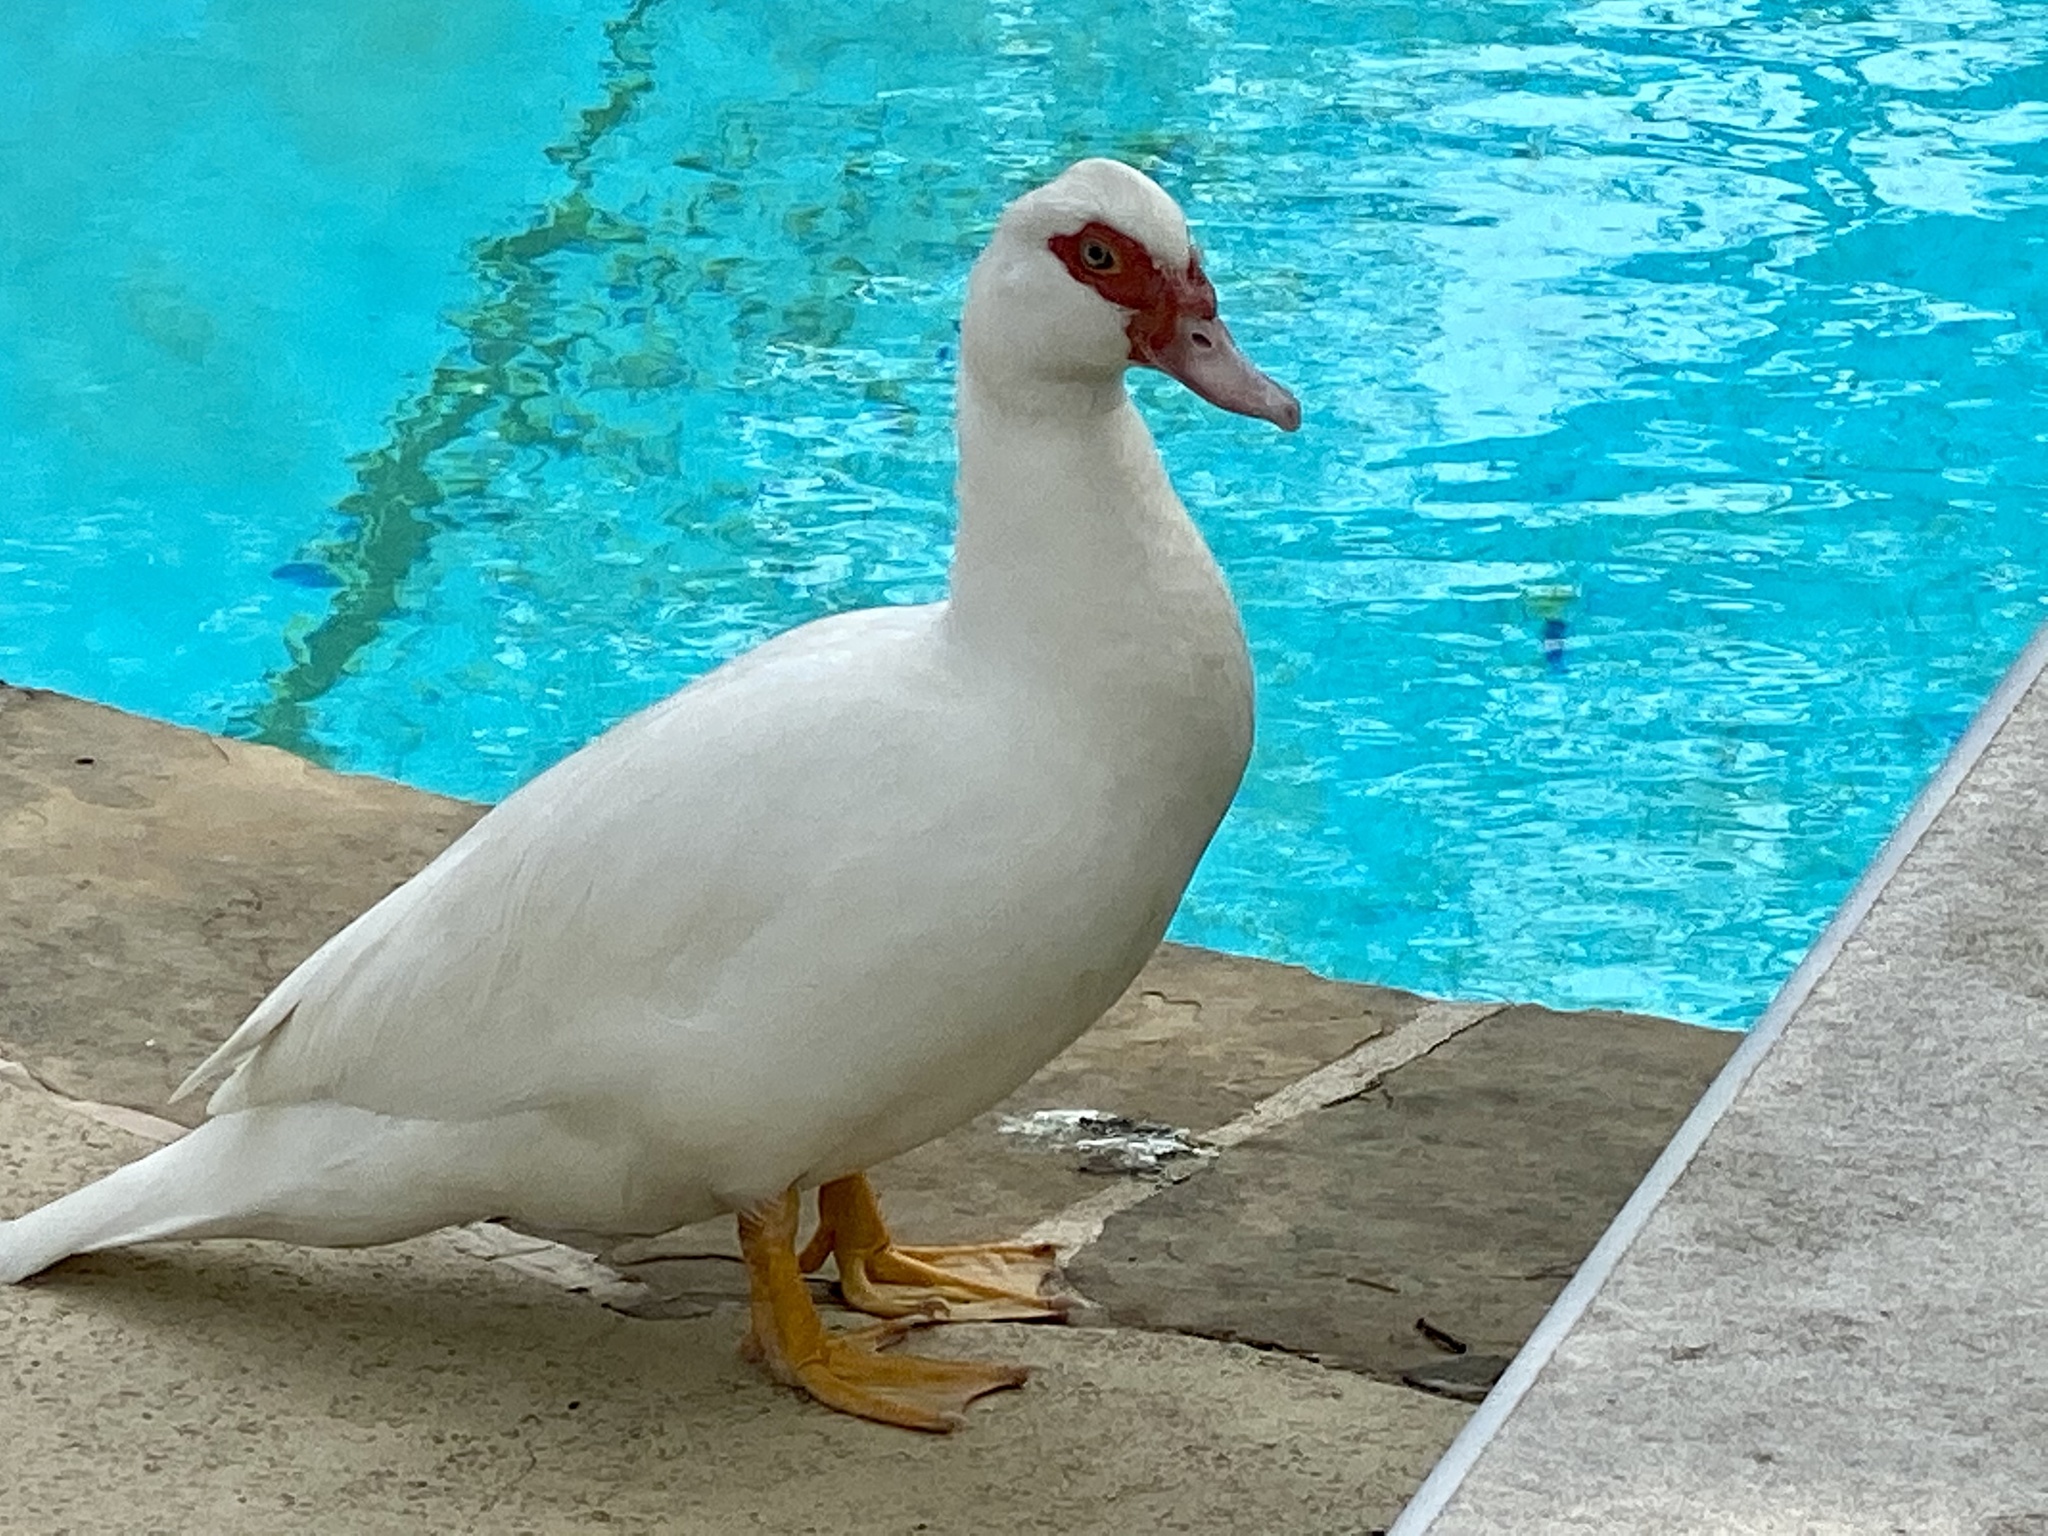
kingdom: Animalia
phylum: Chordata
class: Aves
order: Anseriformes
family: Anatidae
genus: Cairina
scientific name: Cairina moschata
